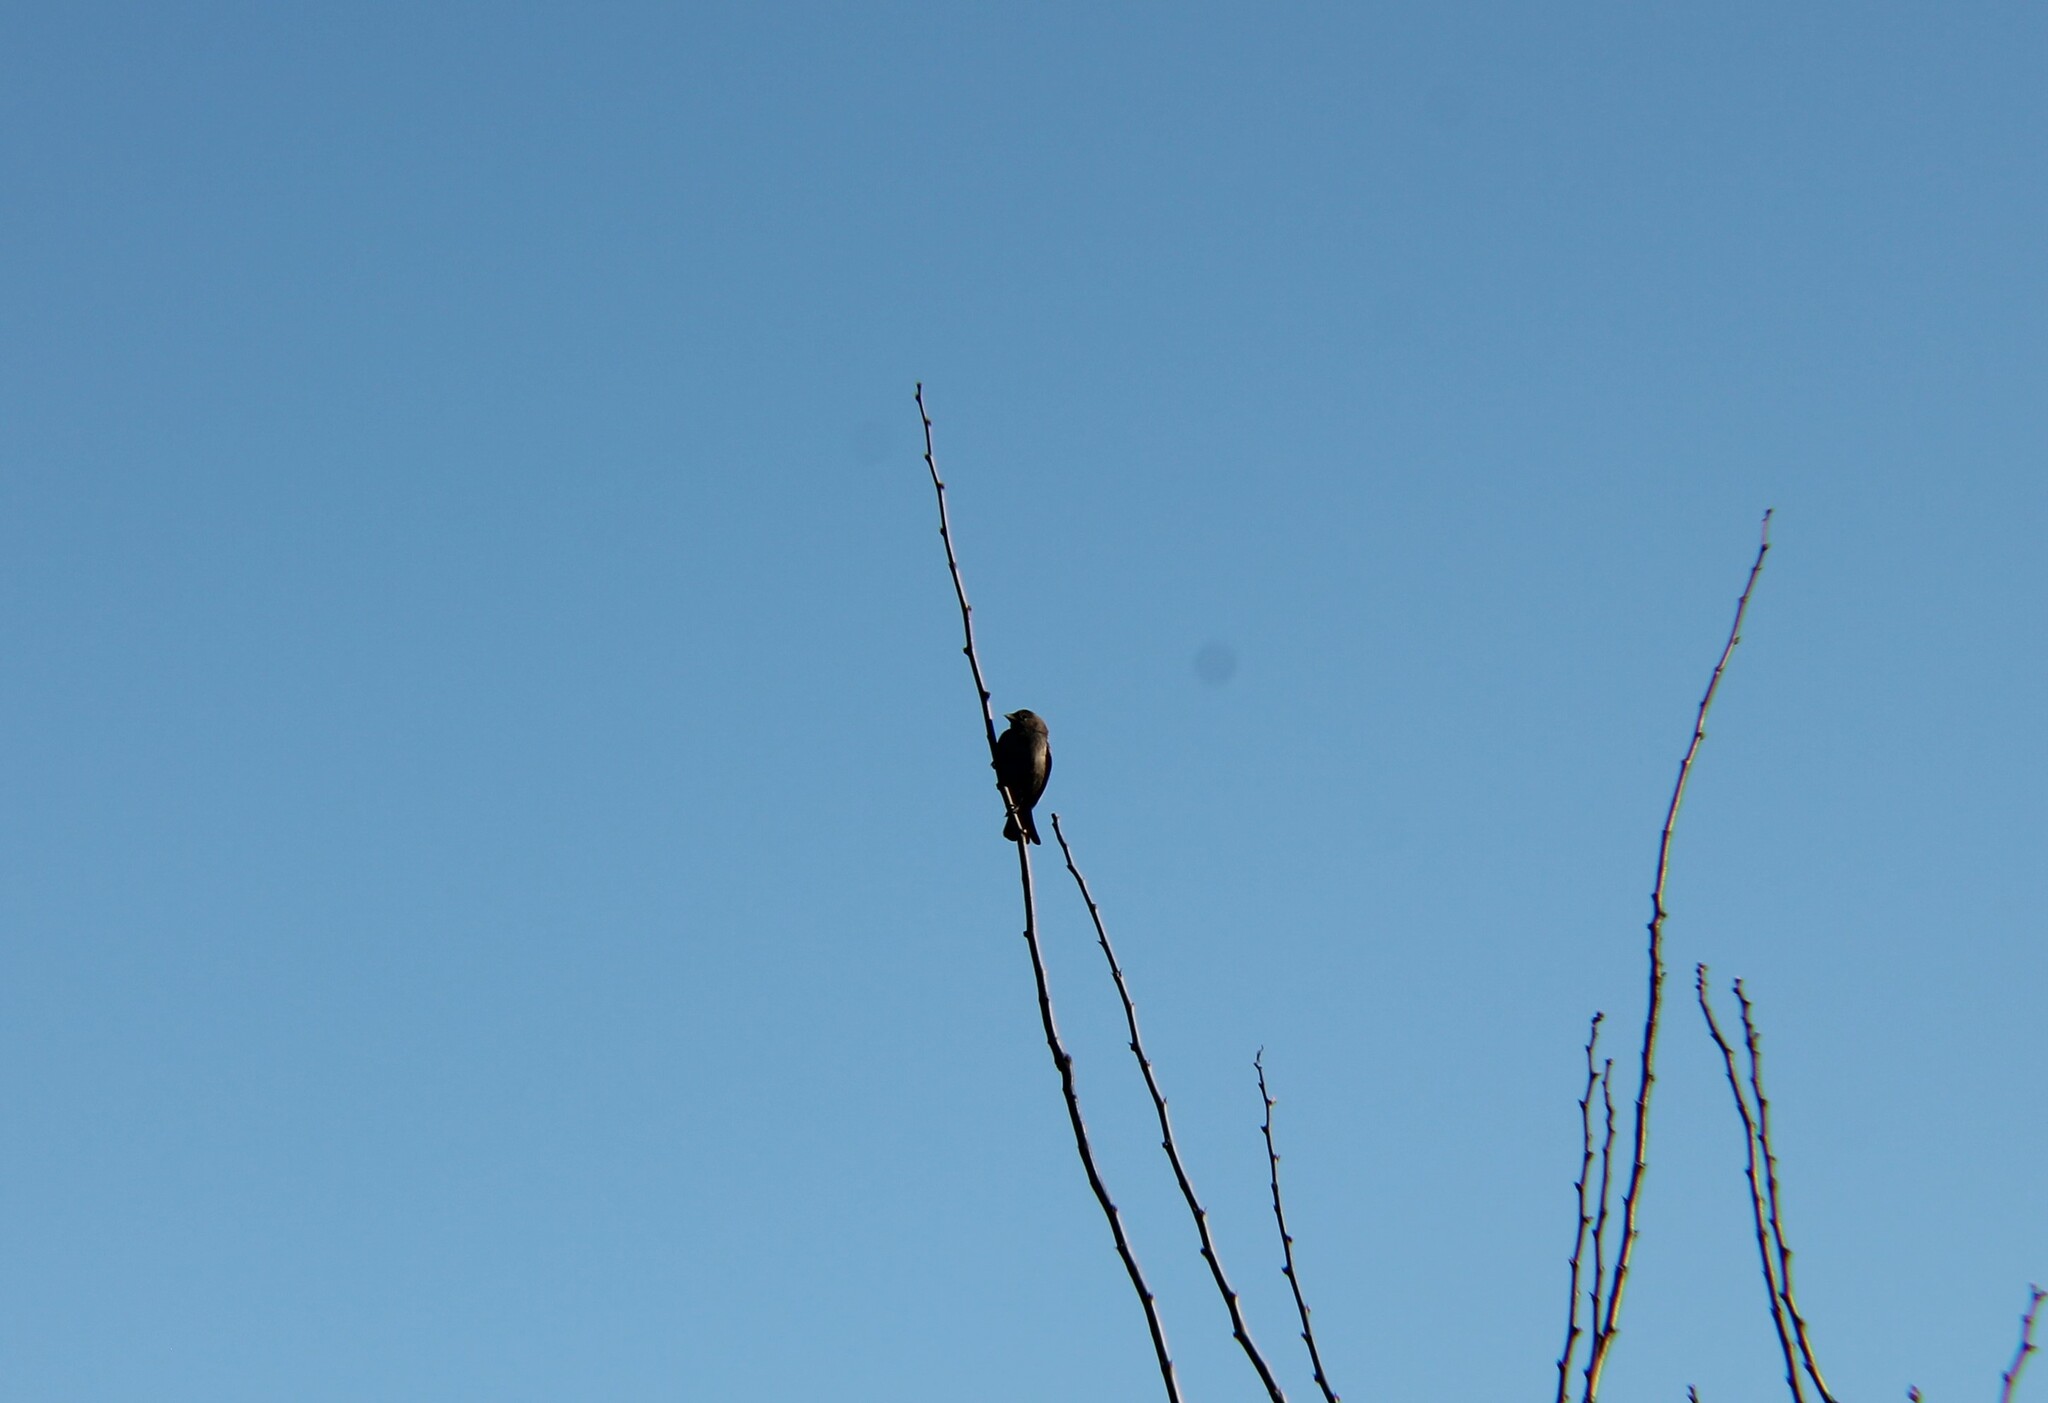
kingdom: Animalia
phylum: Chordata
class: Aves
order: Passeriformes
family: Icteridae
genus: Molothrus
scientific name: Molothrus ater
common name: Brown-headed cowbird
